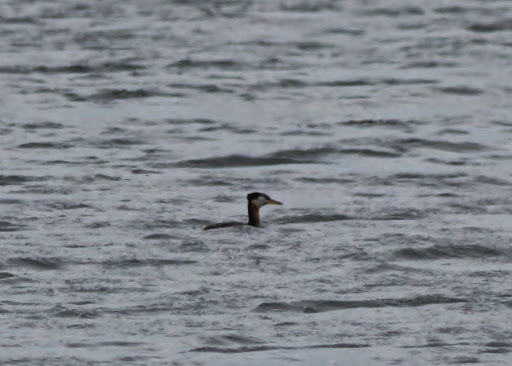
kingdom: Animalia
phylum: Chordata
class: Aves
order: Podicipediformes
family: Podicipedidae
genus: Podiceps
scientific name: Podiceps grisegena
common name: Red-necked grebe
